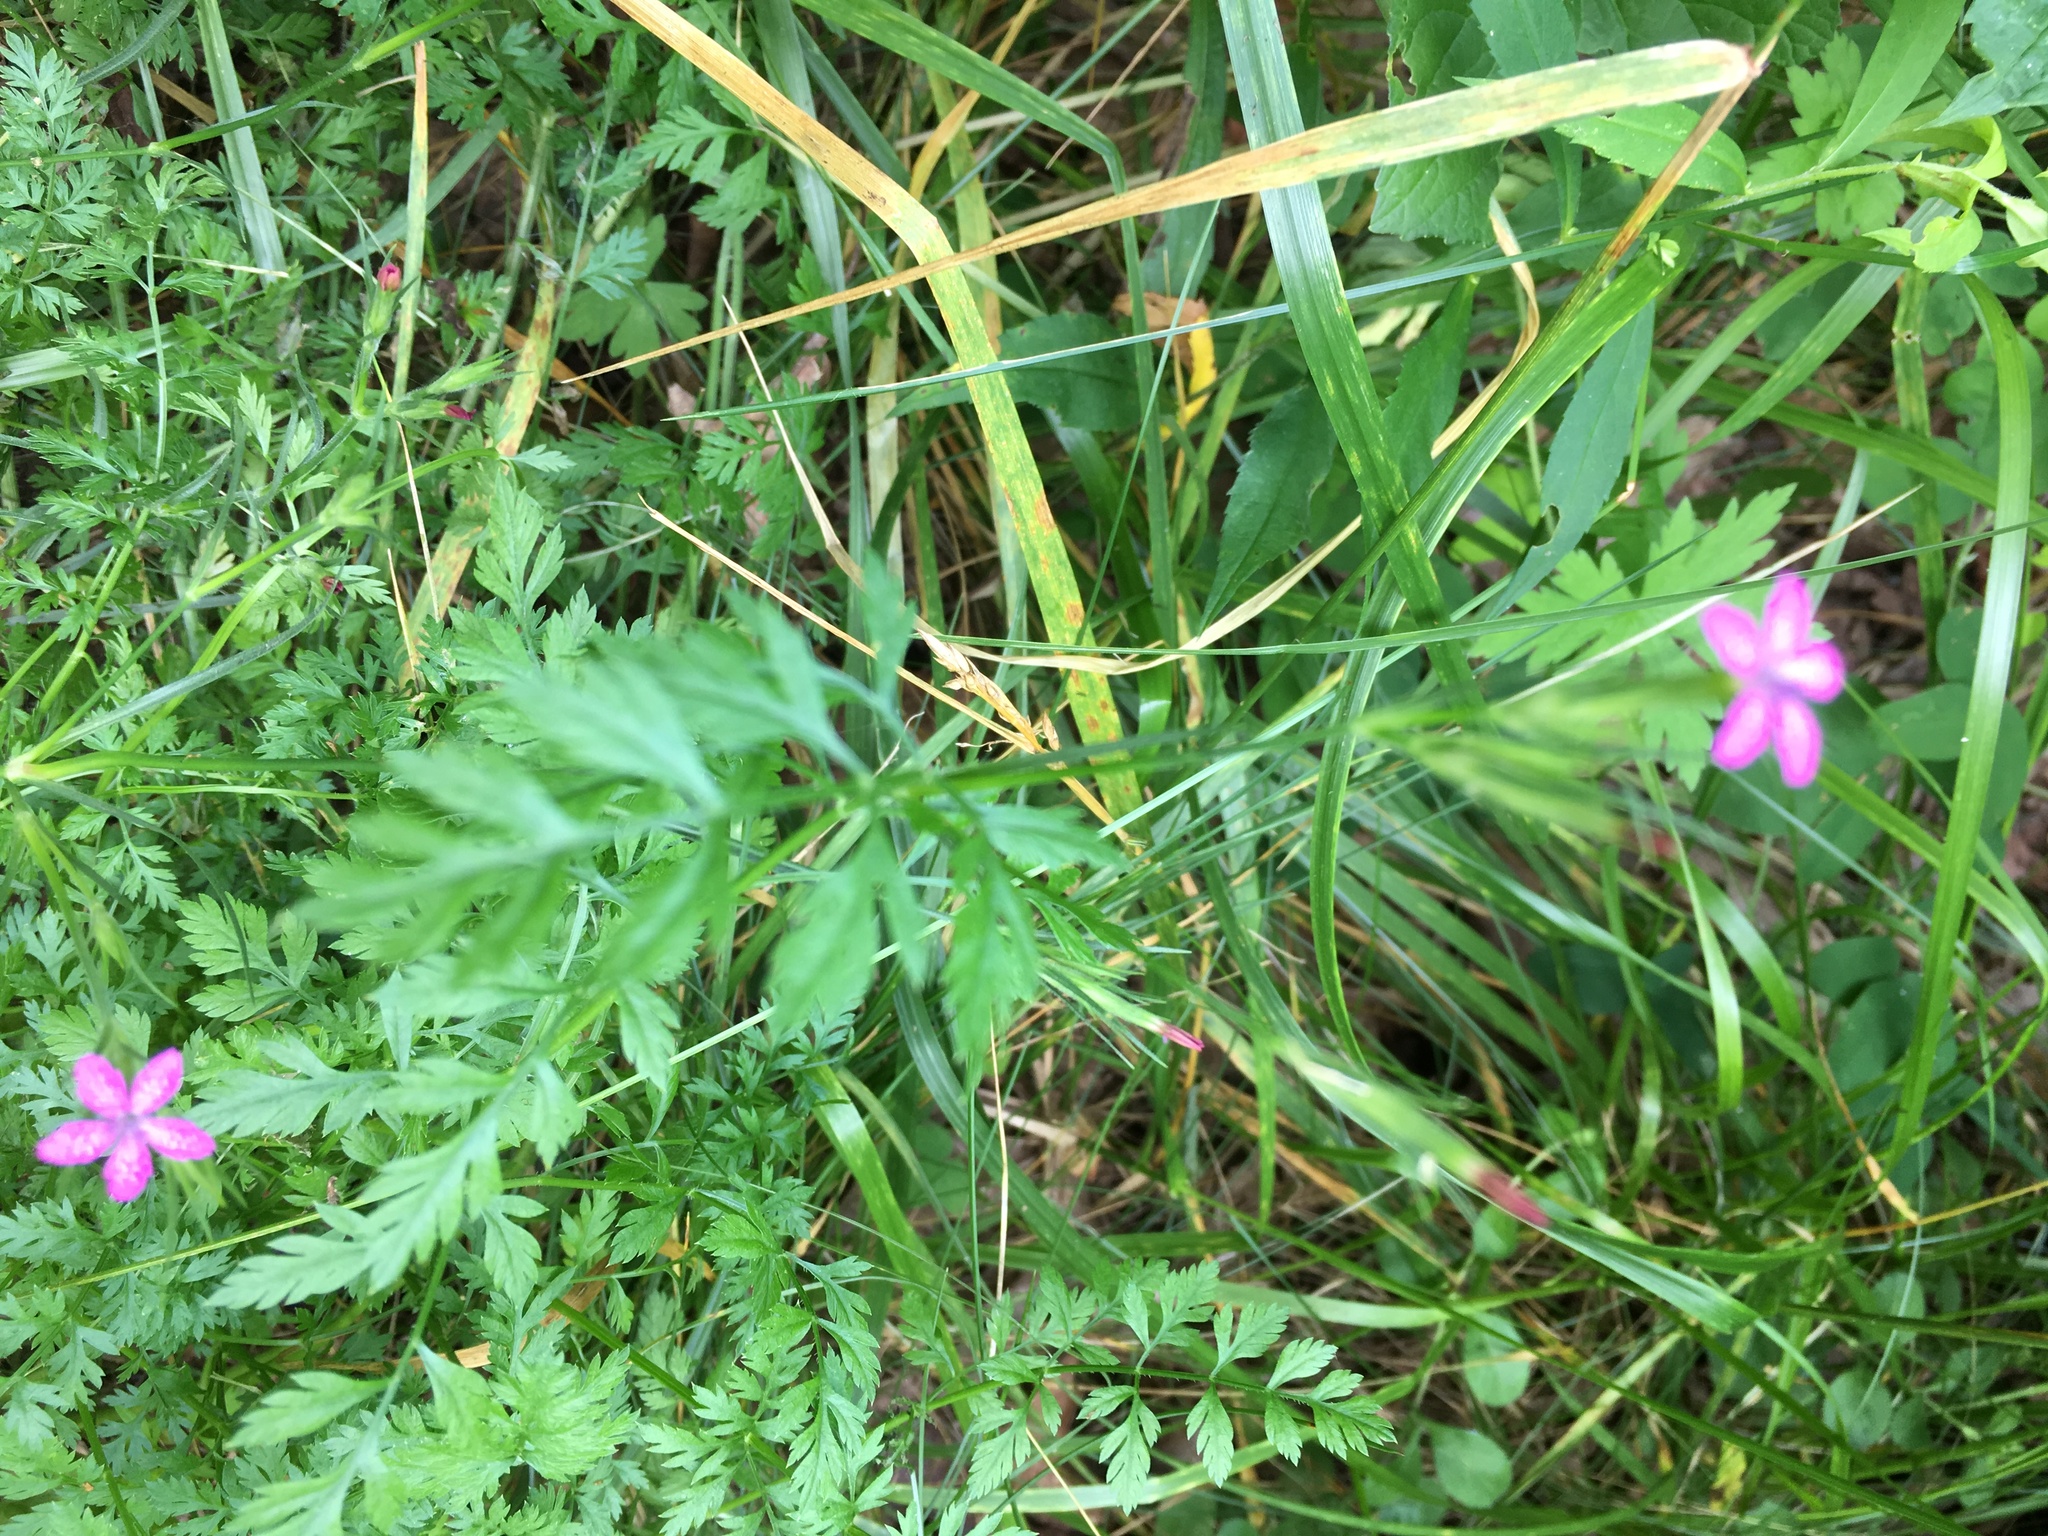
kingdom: Plantae
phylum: Tracheophyta
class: Magnoliopsida
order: Caryophyllales
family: Caryophyllaceae
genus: Dianthus
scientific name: Dianthus armeria
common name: Deptford pink
